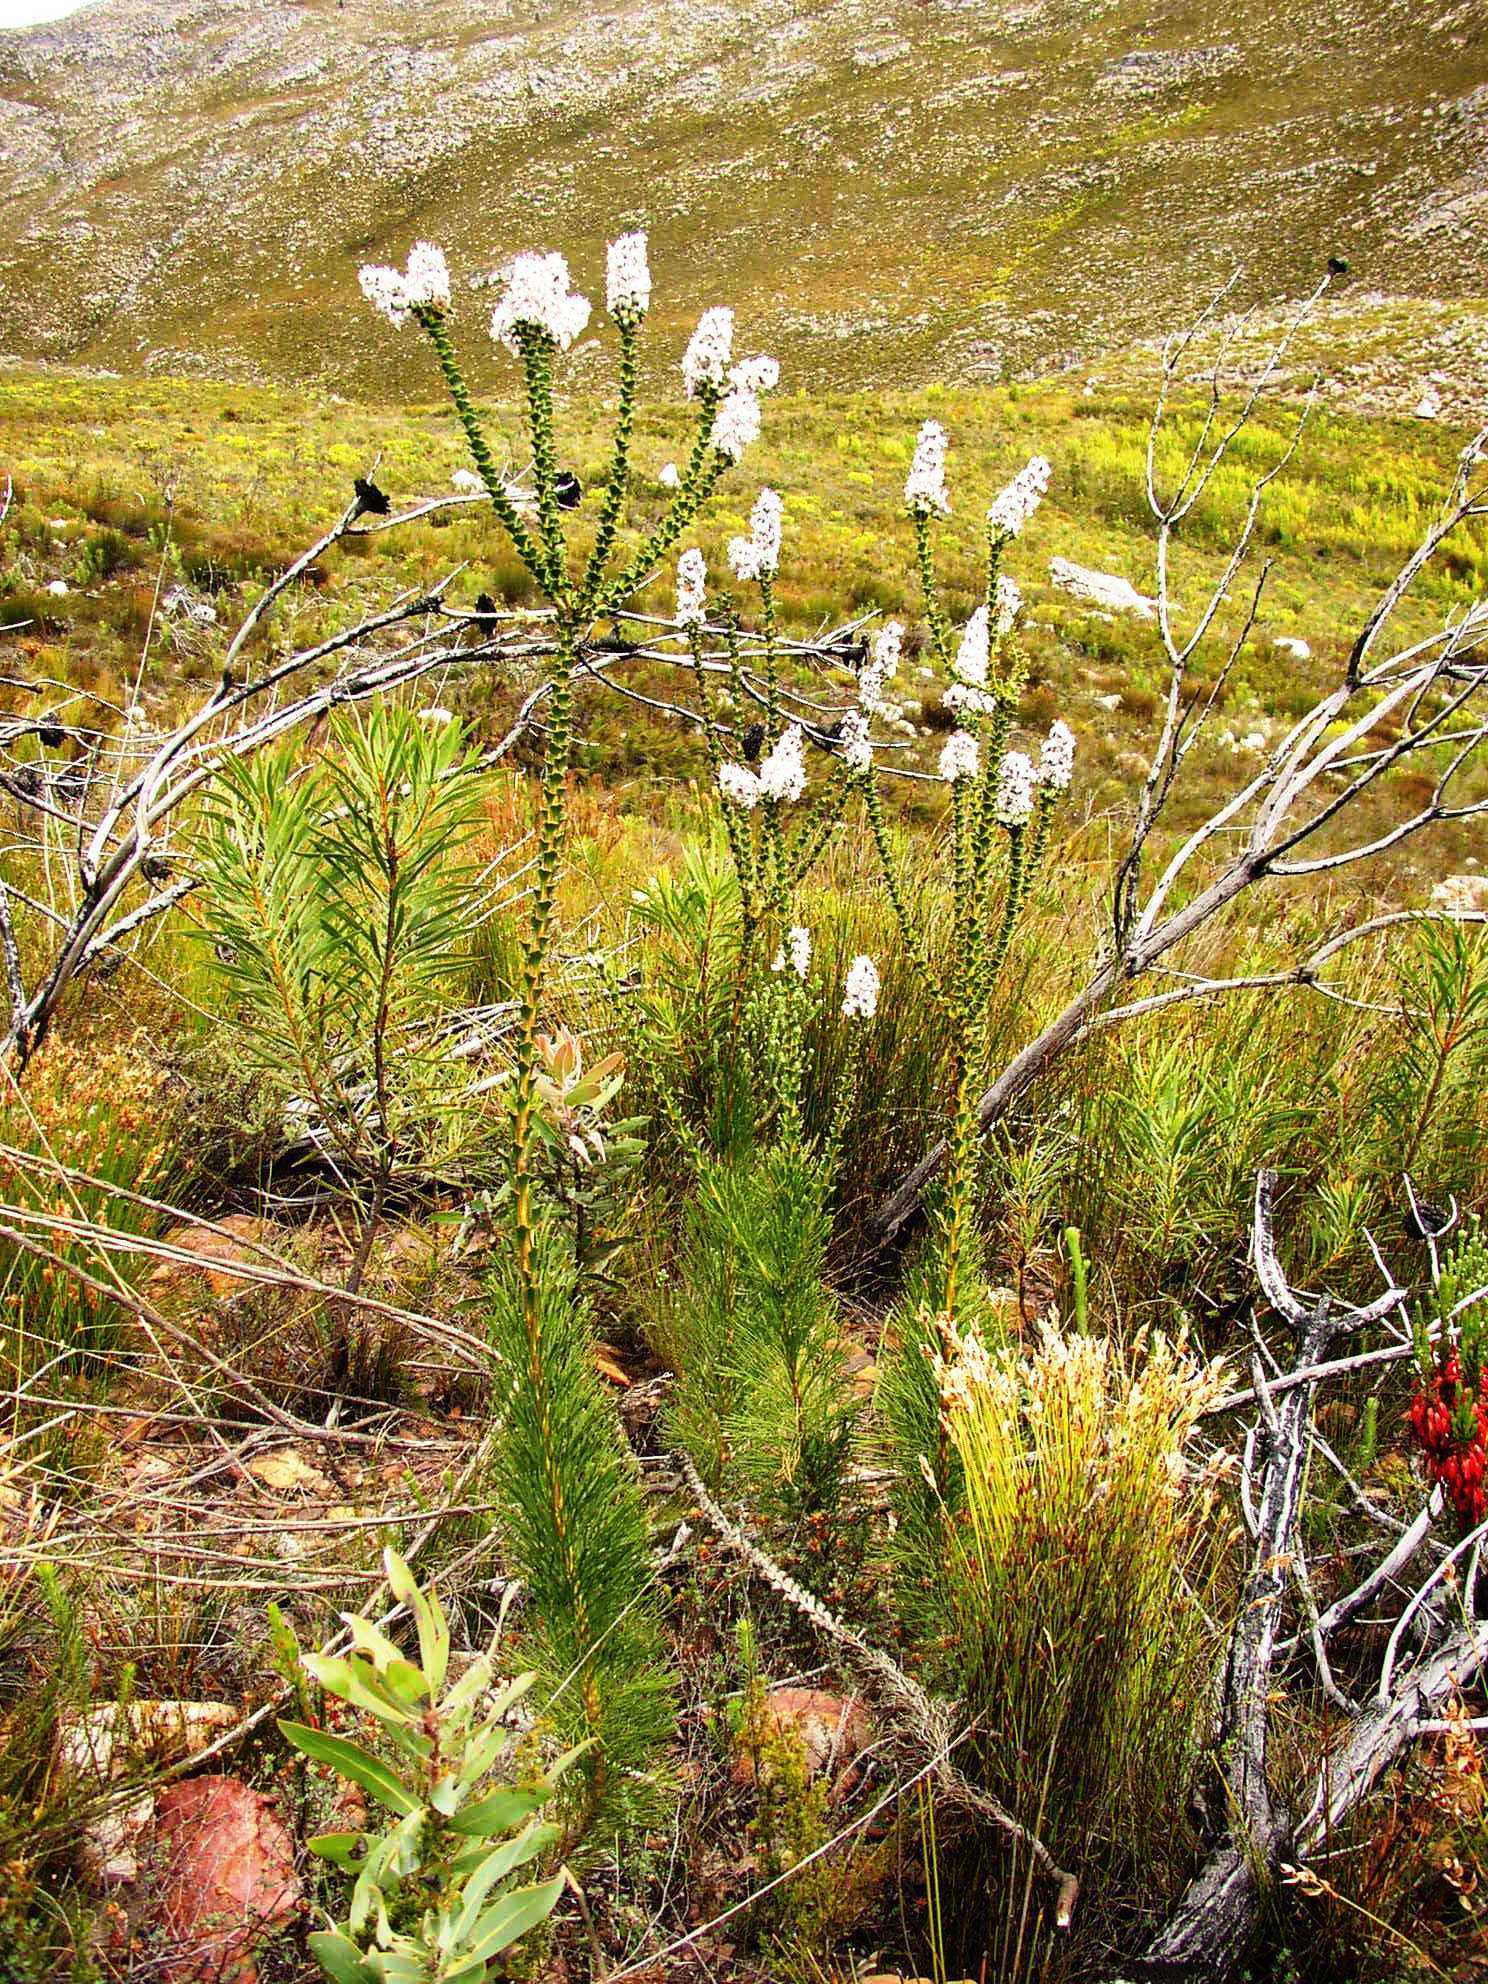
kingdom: Plantae
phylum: Tracheophyta
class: Magnoliopsida
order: Proteales
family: Proteaceae
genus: Paranomus
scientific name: Paranomus adiantifolius
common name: Hairy-style sceptre
